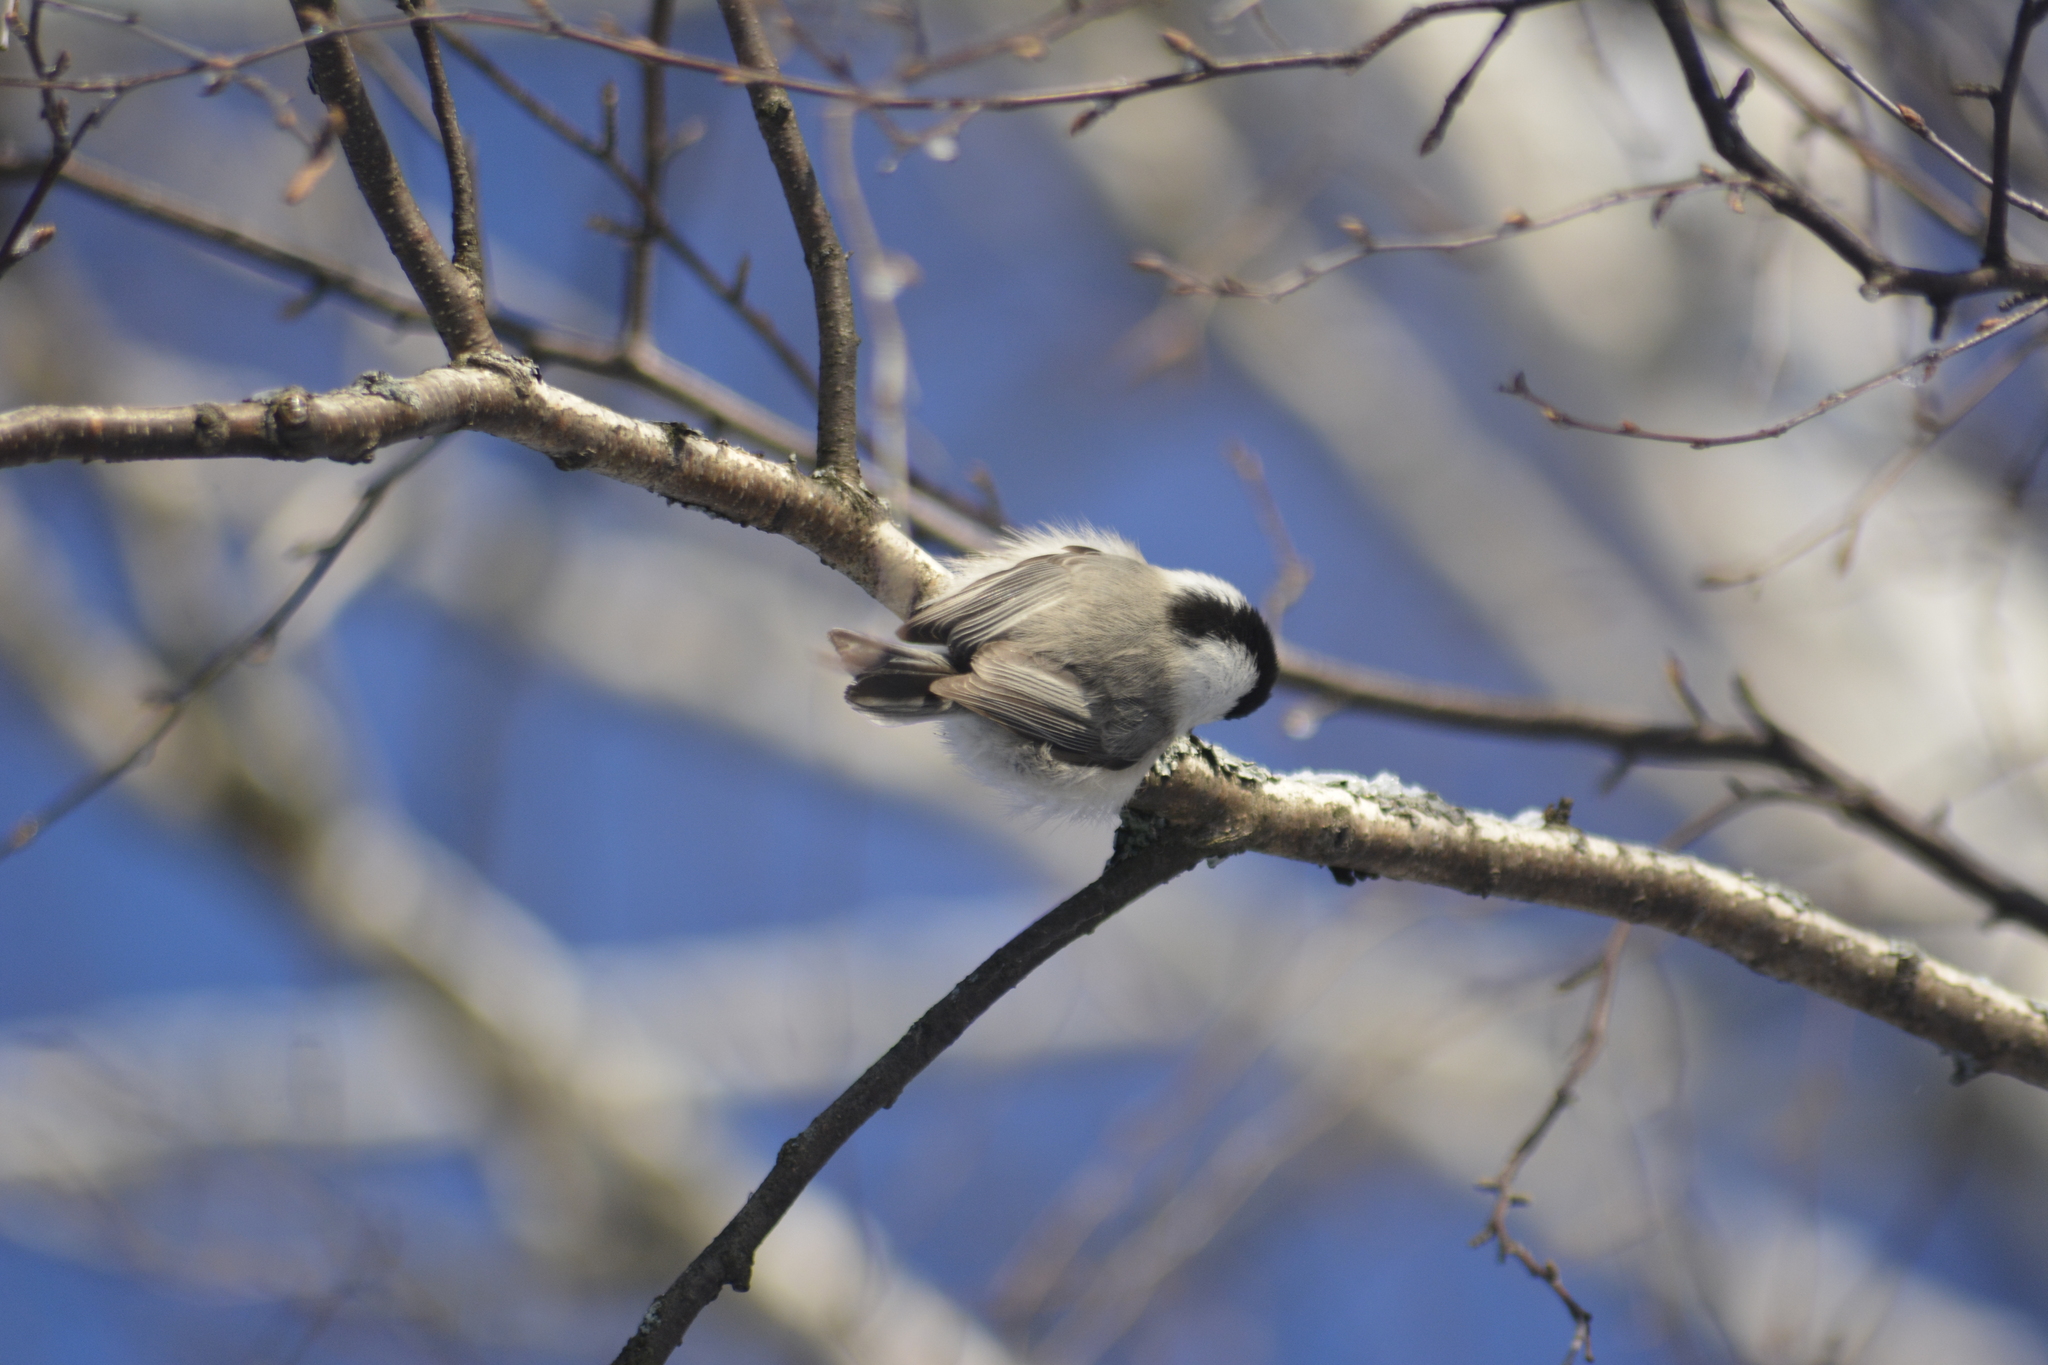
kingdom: Animalia
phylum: Chordata
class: Aves
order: Passeriformes
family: Paridae
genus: Poecile
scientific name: Poecile montanus
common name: Willow tit
